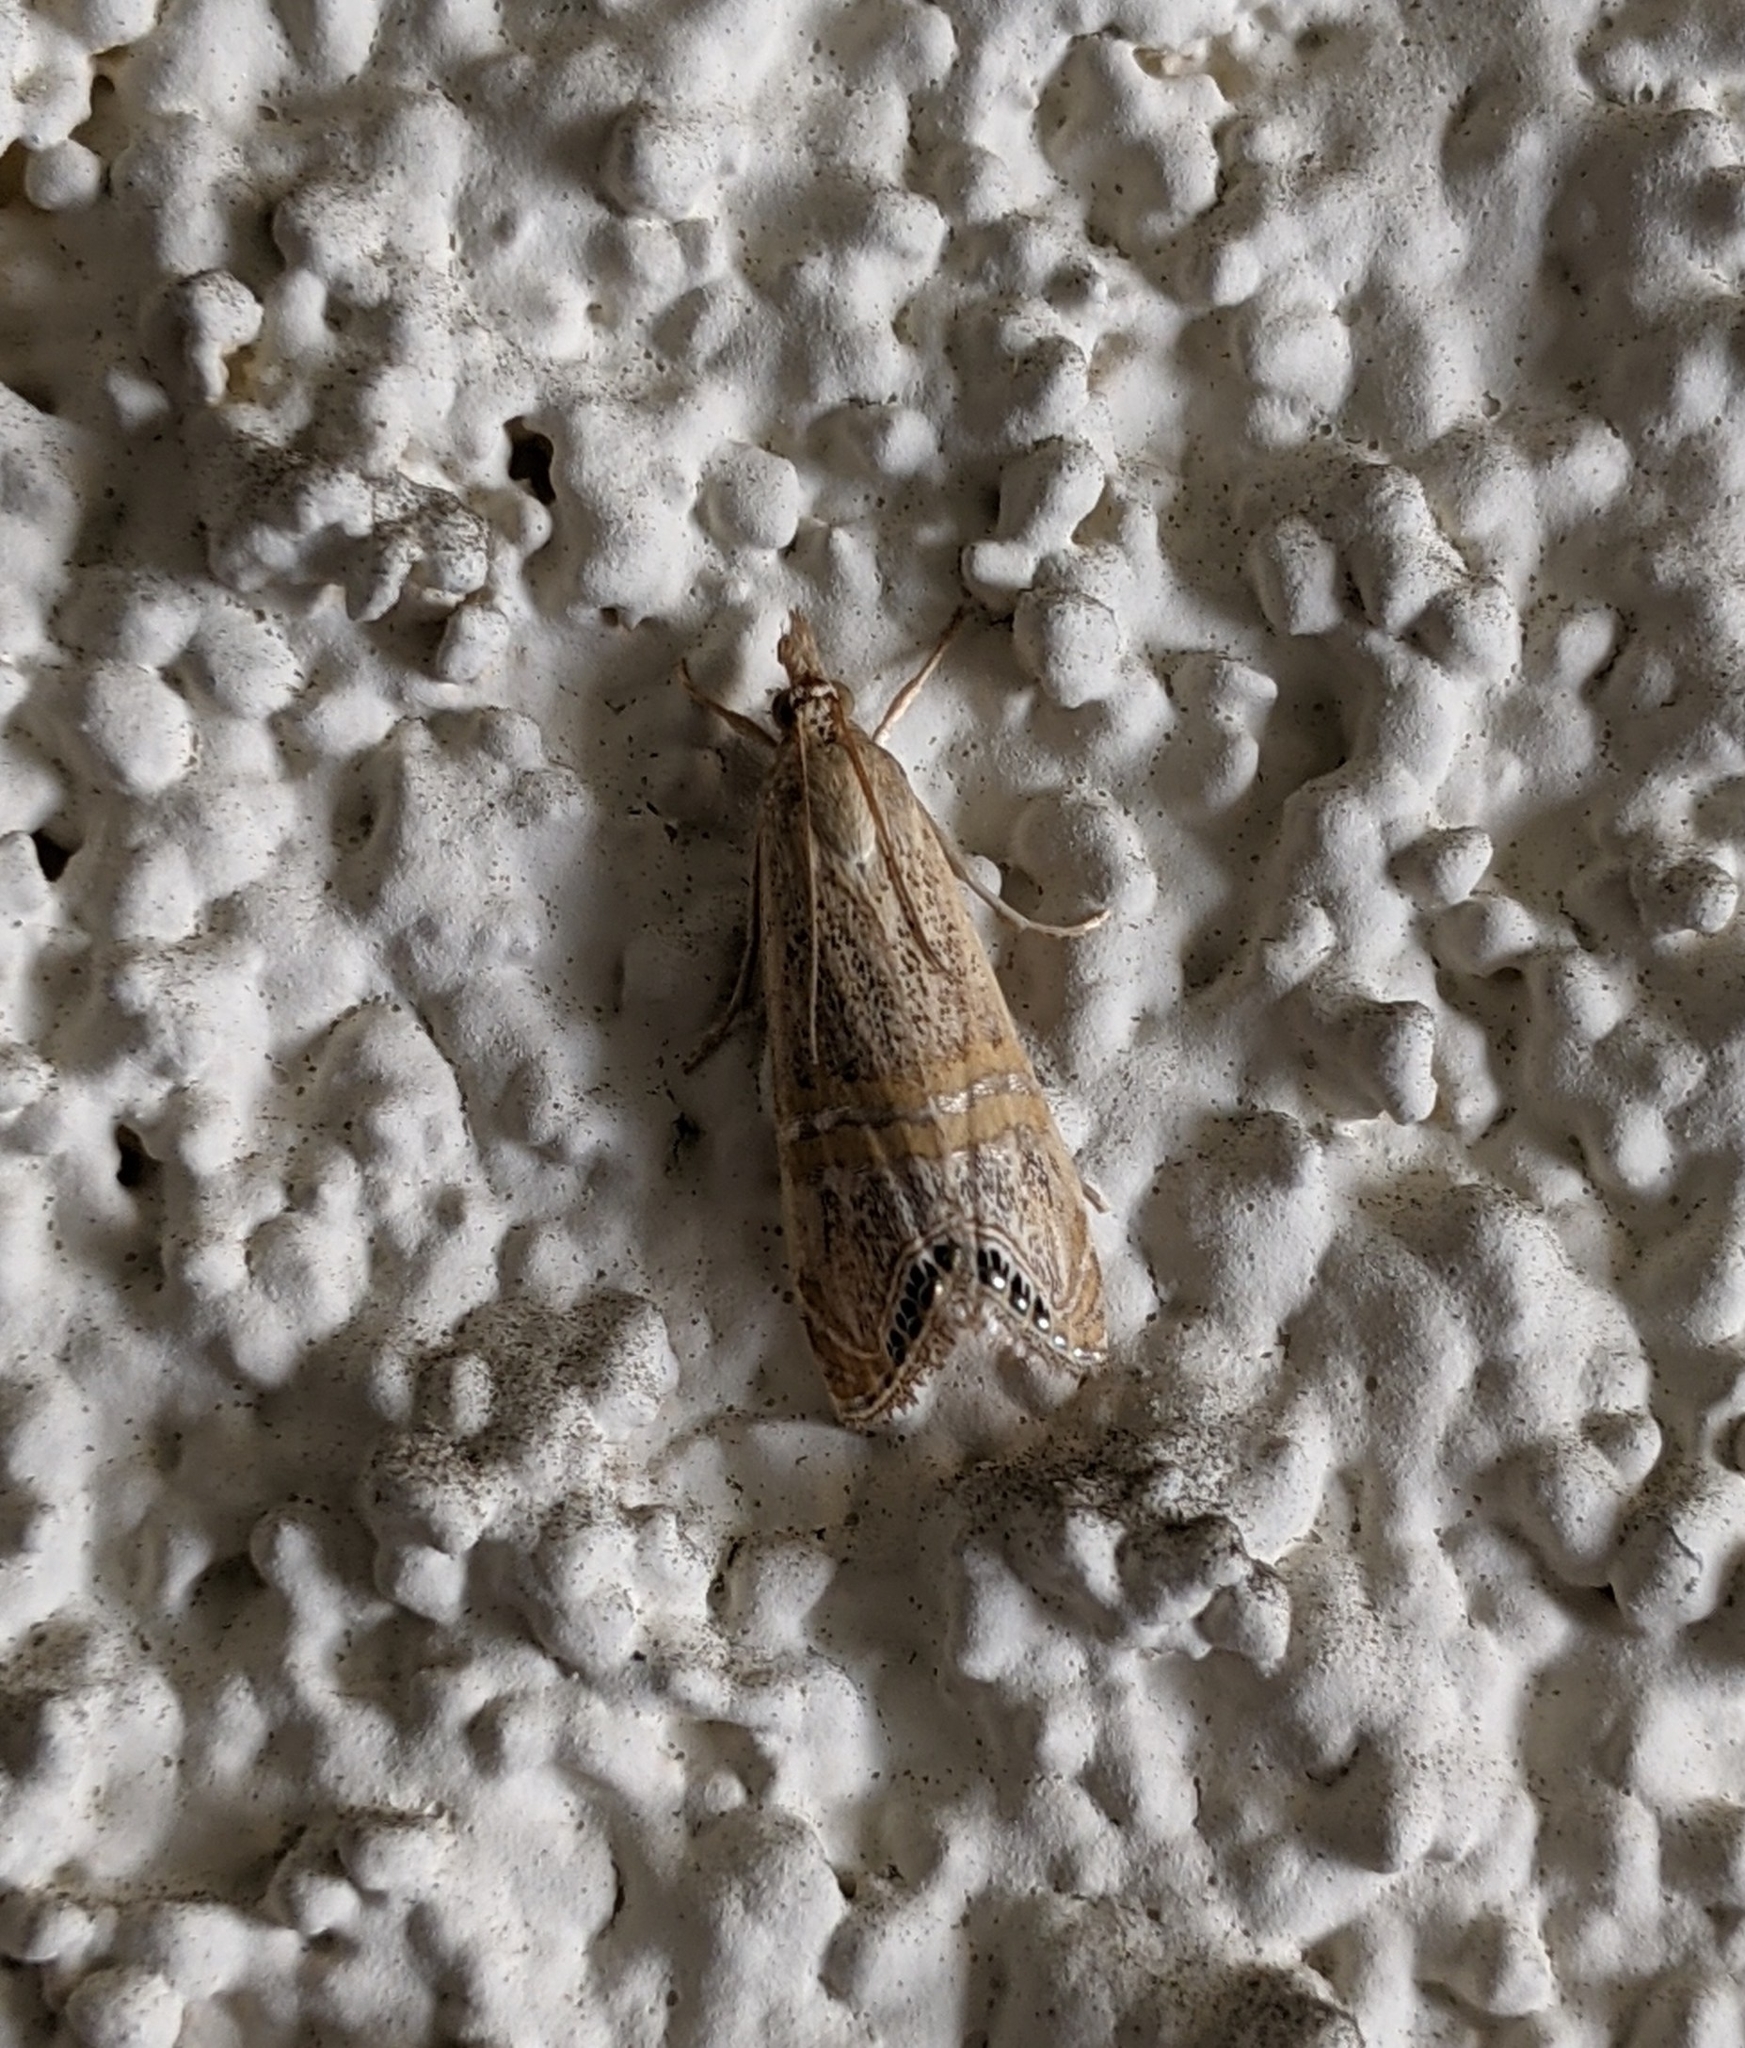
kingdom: Animalia
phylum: Arthropoda
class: Insecta
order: Lepidoptera
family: Crambidae
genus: Euchromius
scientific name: Euchromius ocellea
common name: Necklace veneer moth
